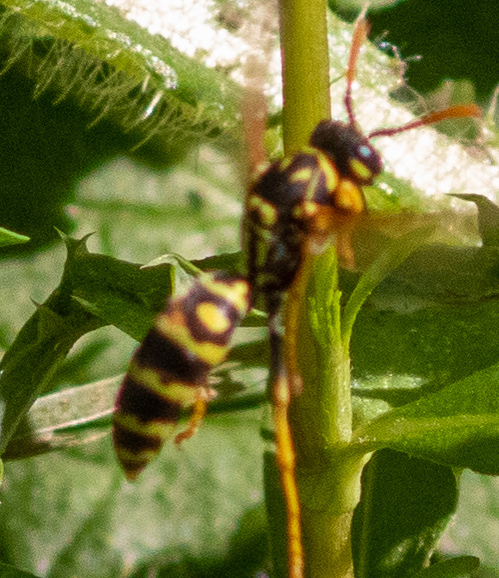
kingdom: Animalia
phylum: Arthropoda
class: Insecta
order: Hymenoptera
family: Eumenidae
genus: Polistes
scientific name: Polistes dominula
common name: Paper wasp
